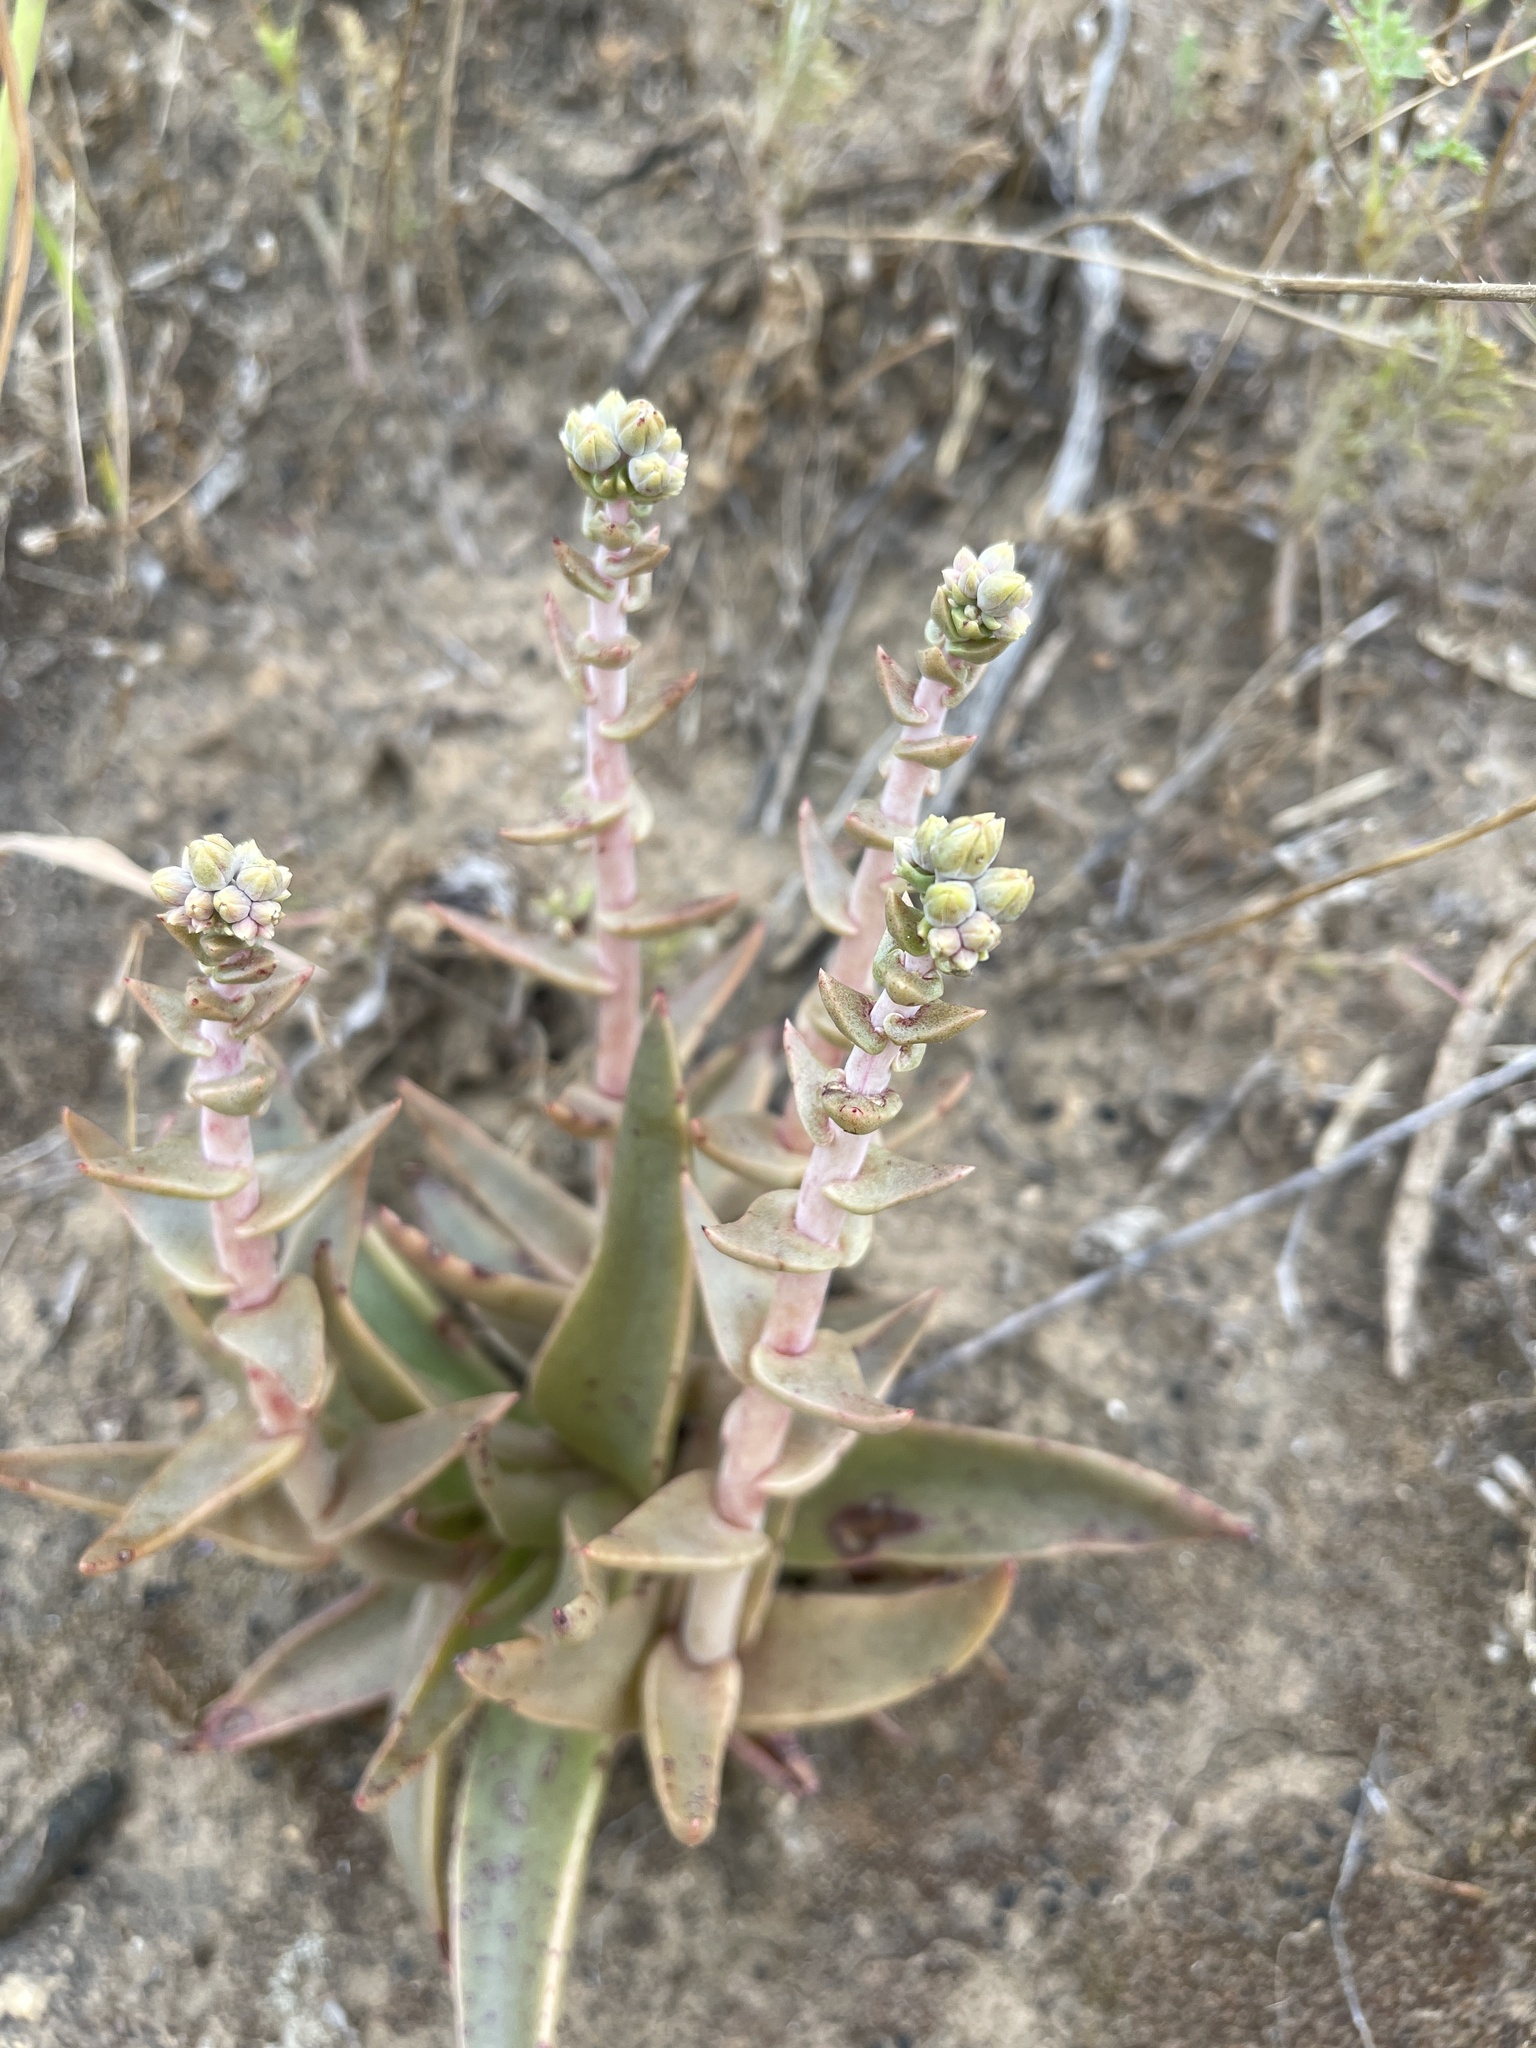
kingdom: Plantae
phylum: Tracheophyta
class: Magnoliopsida
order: Saxifragales
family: Crassulaceae
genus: Dudleya
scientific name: Dudleya lanceolata
